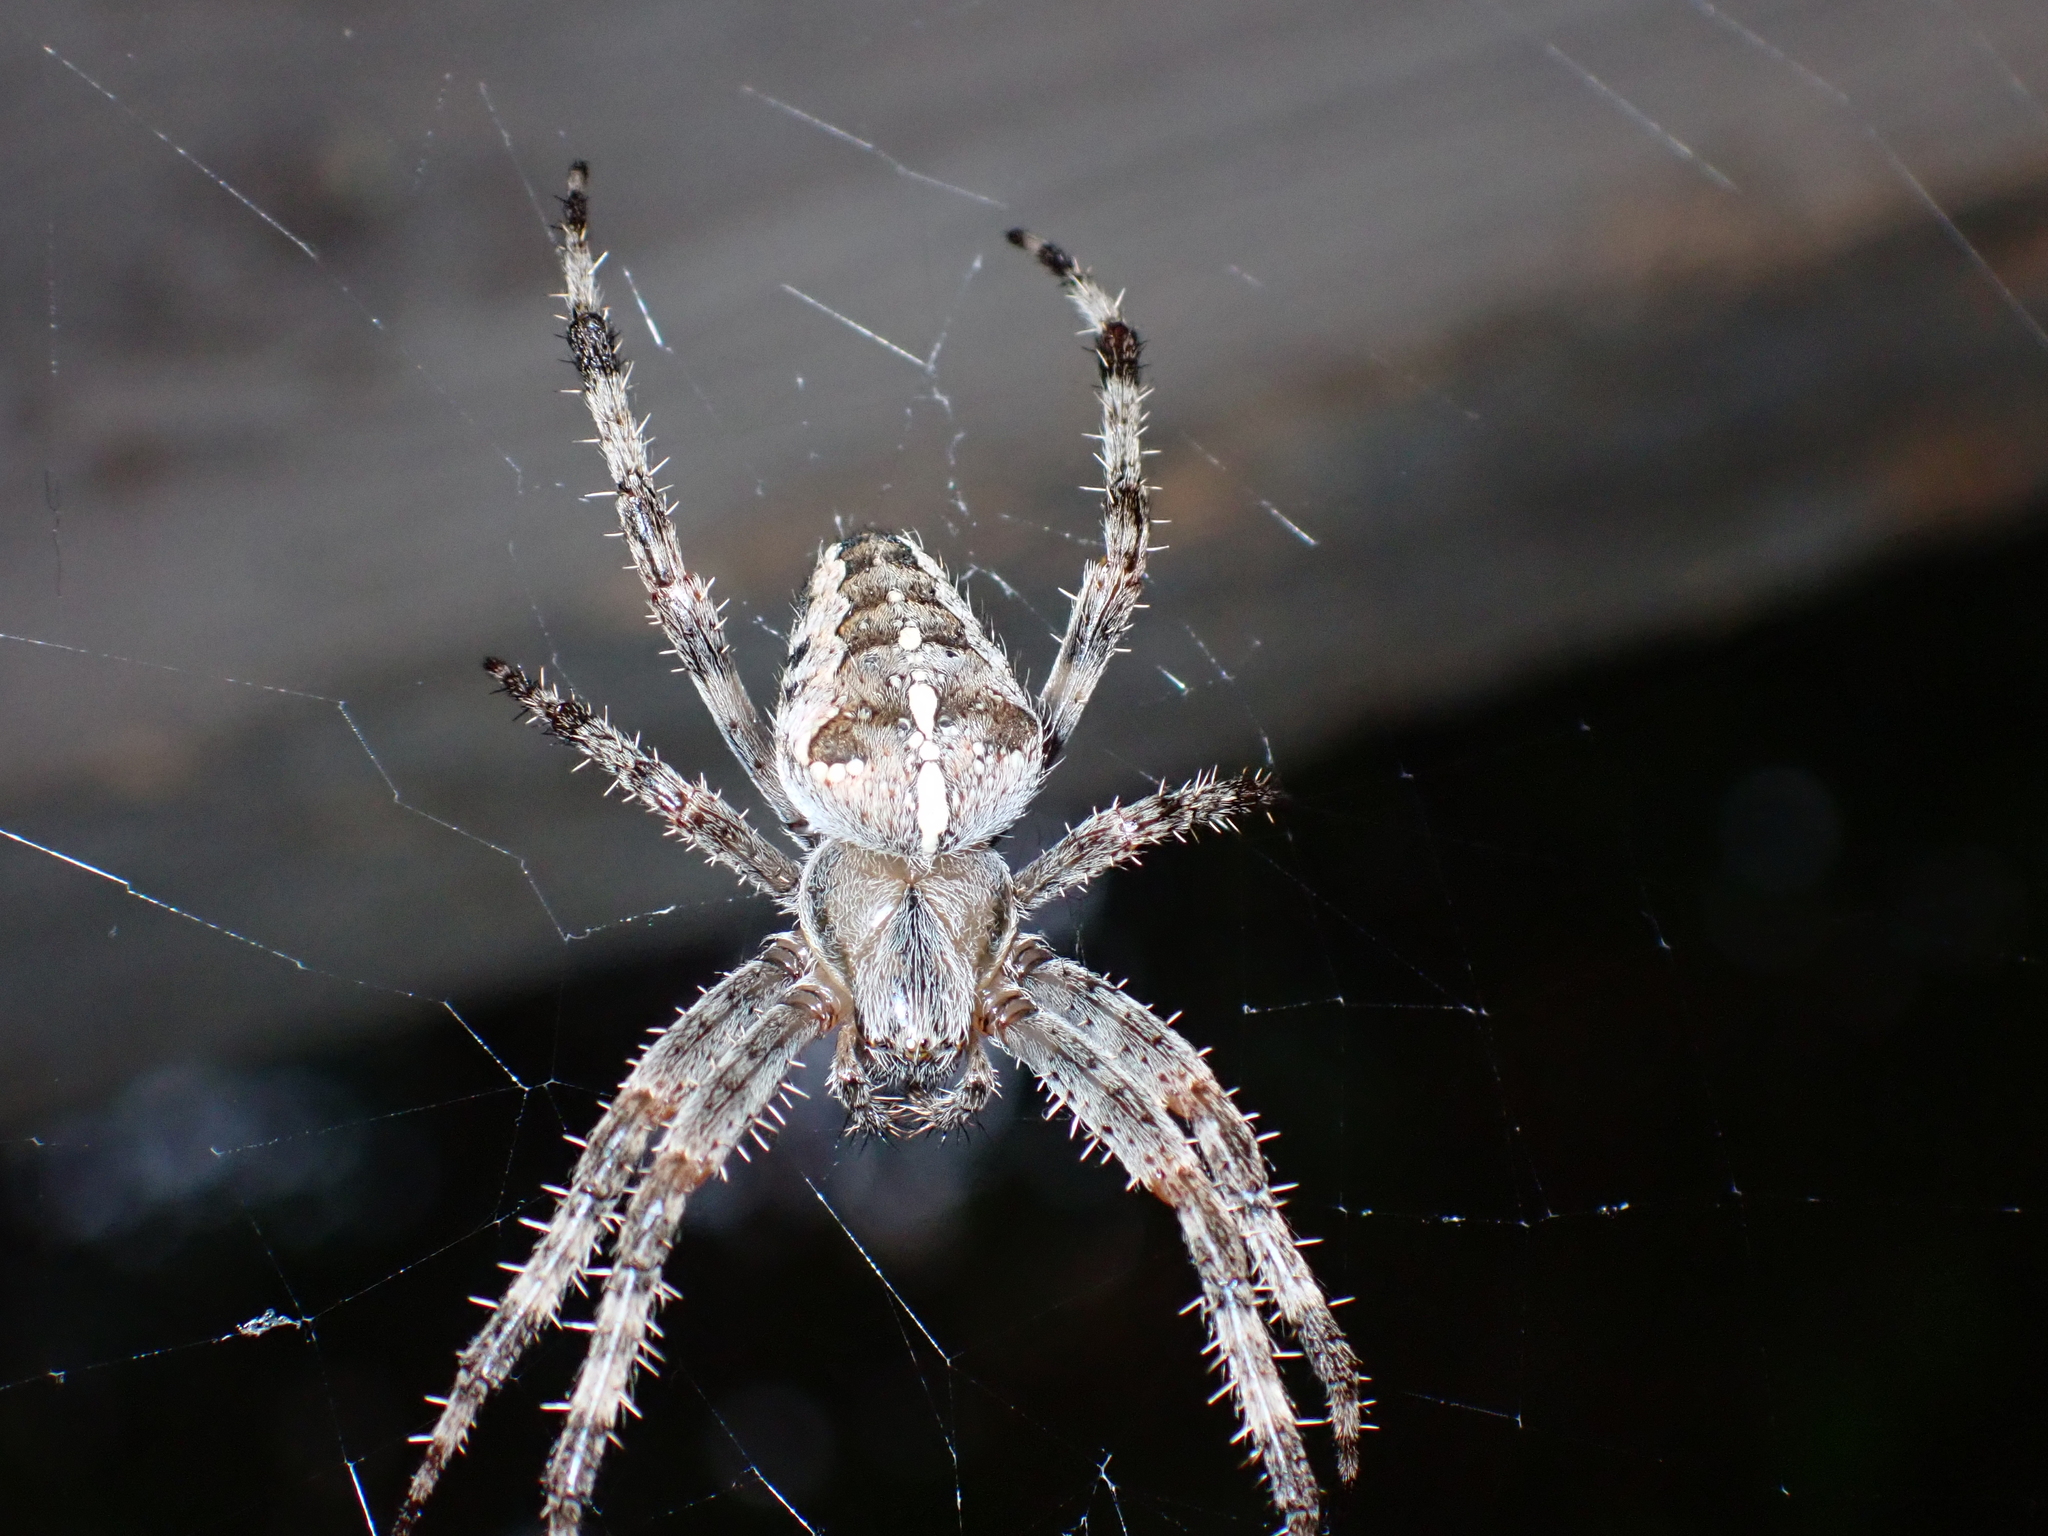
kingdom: Animalia
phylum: Arthropoda
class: Arachnida
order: Araneae
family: Araneidae
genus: Araneus
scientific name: Araneus diadematus
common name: Cross orbweaver
